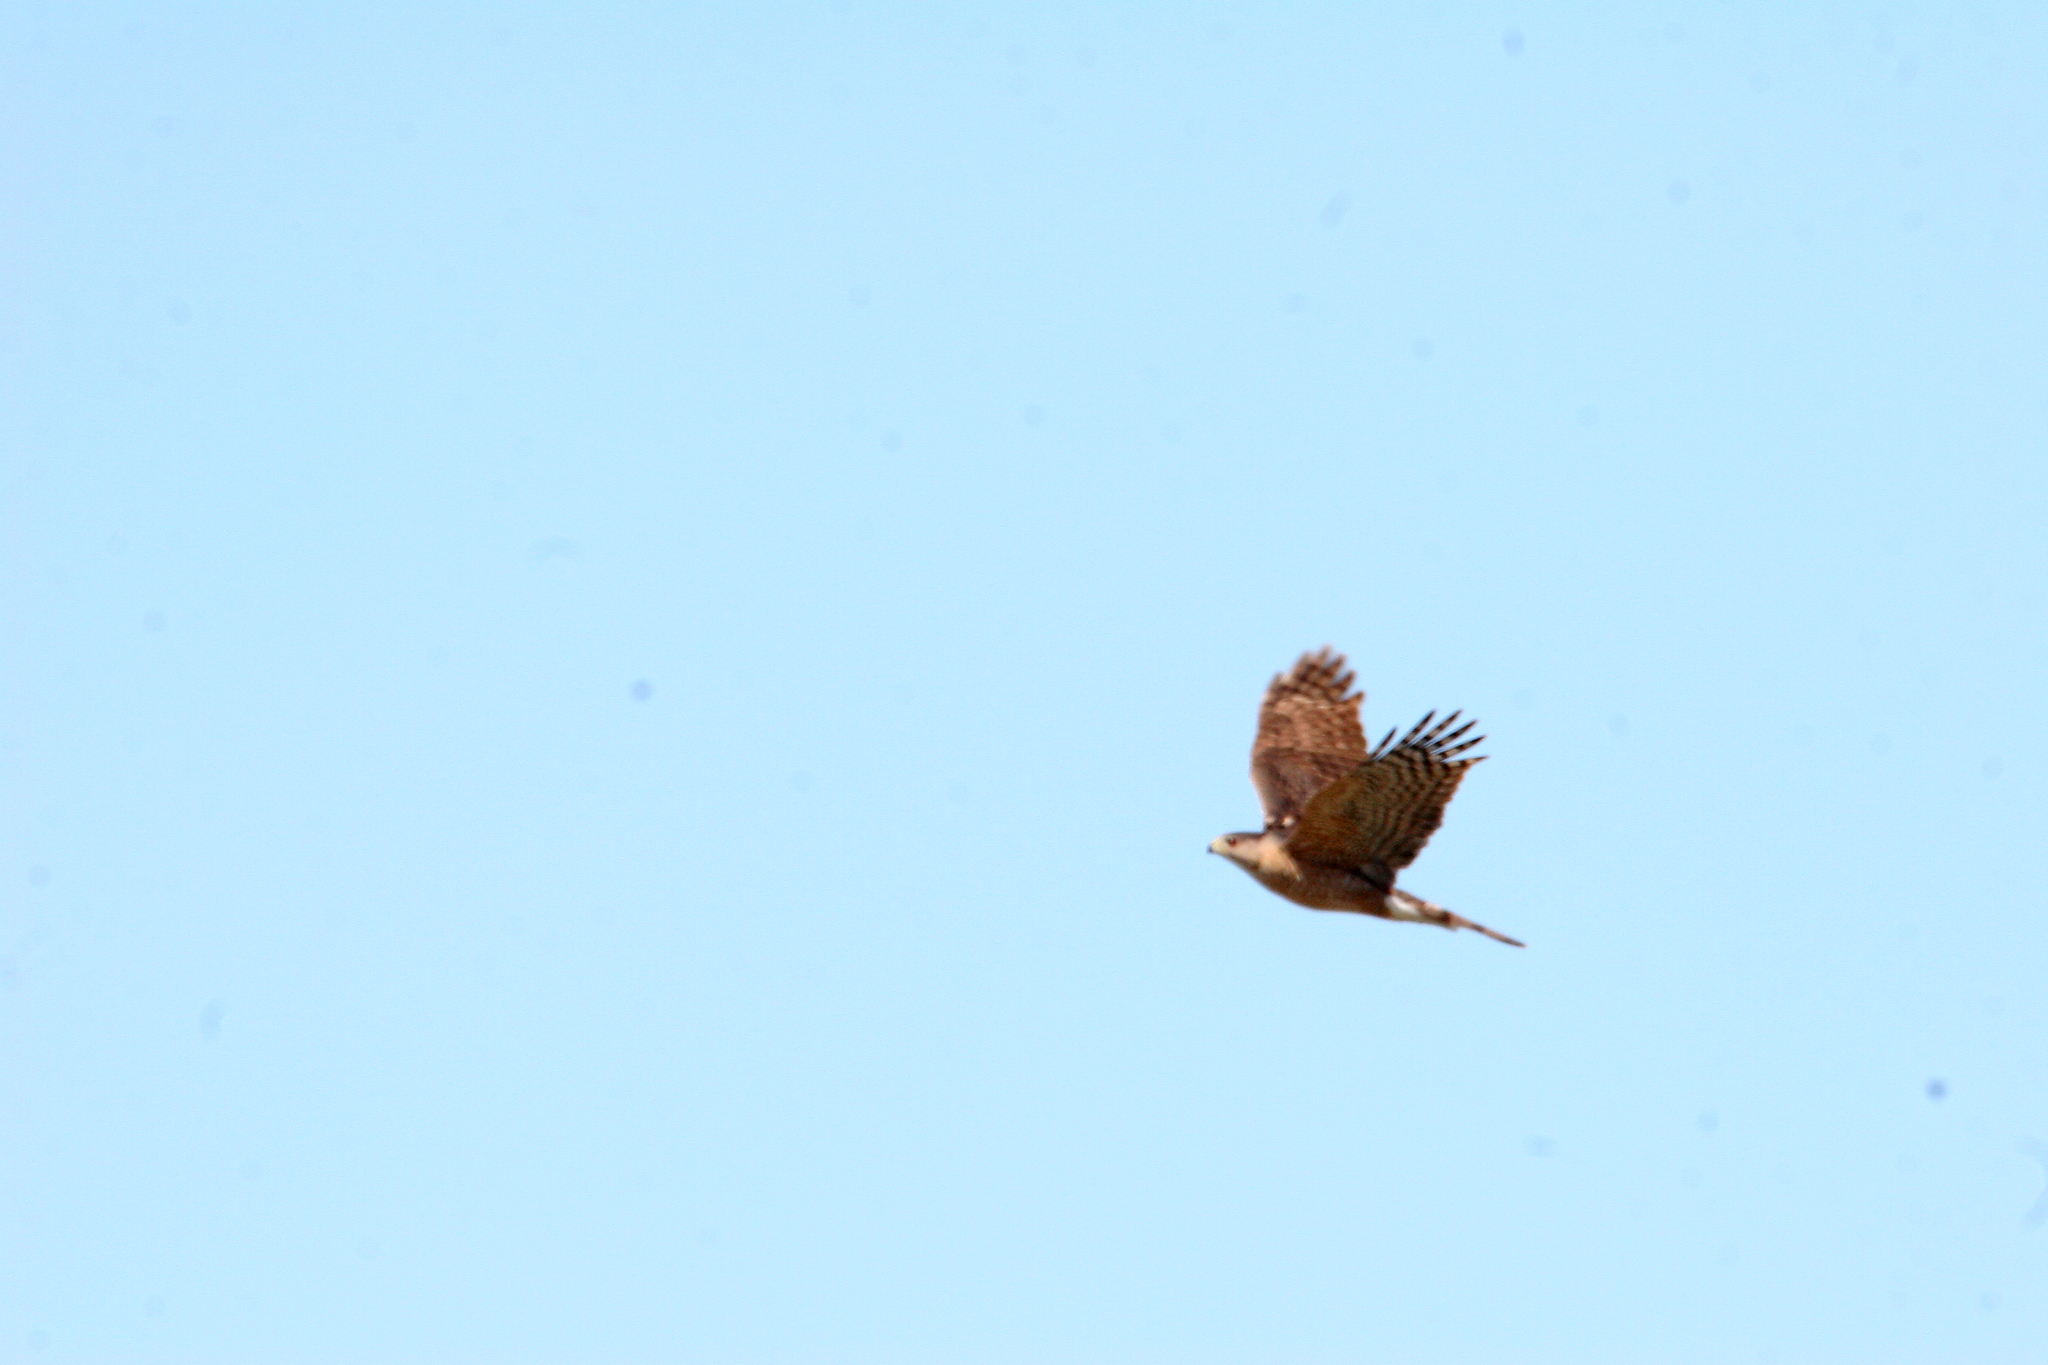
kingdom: Animalia
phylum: Chordata
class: Aves
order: Accipitriformes
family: Accipitridae
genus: Accipiter
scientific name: Accipiter cooperii
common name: Cooper's hawk
